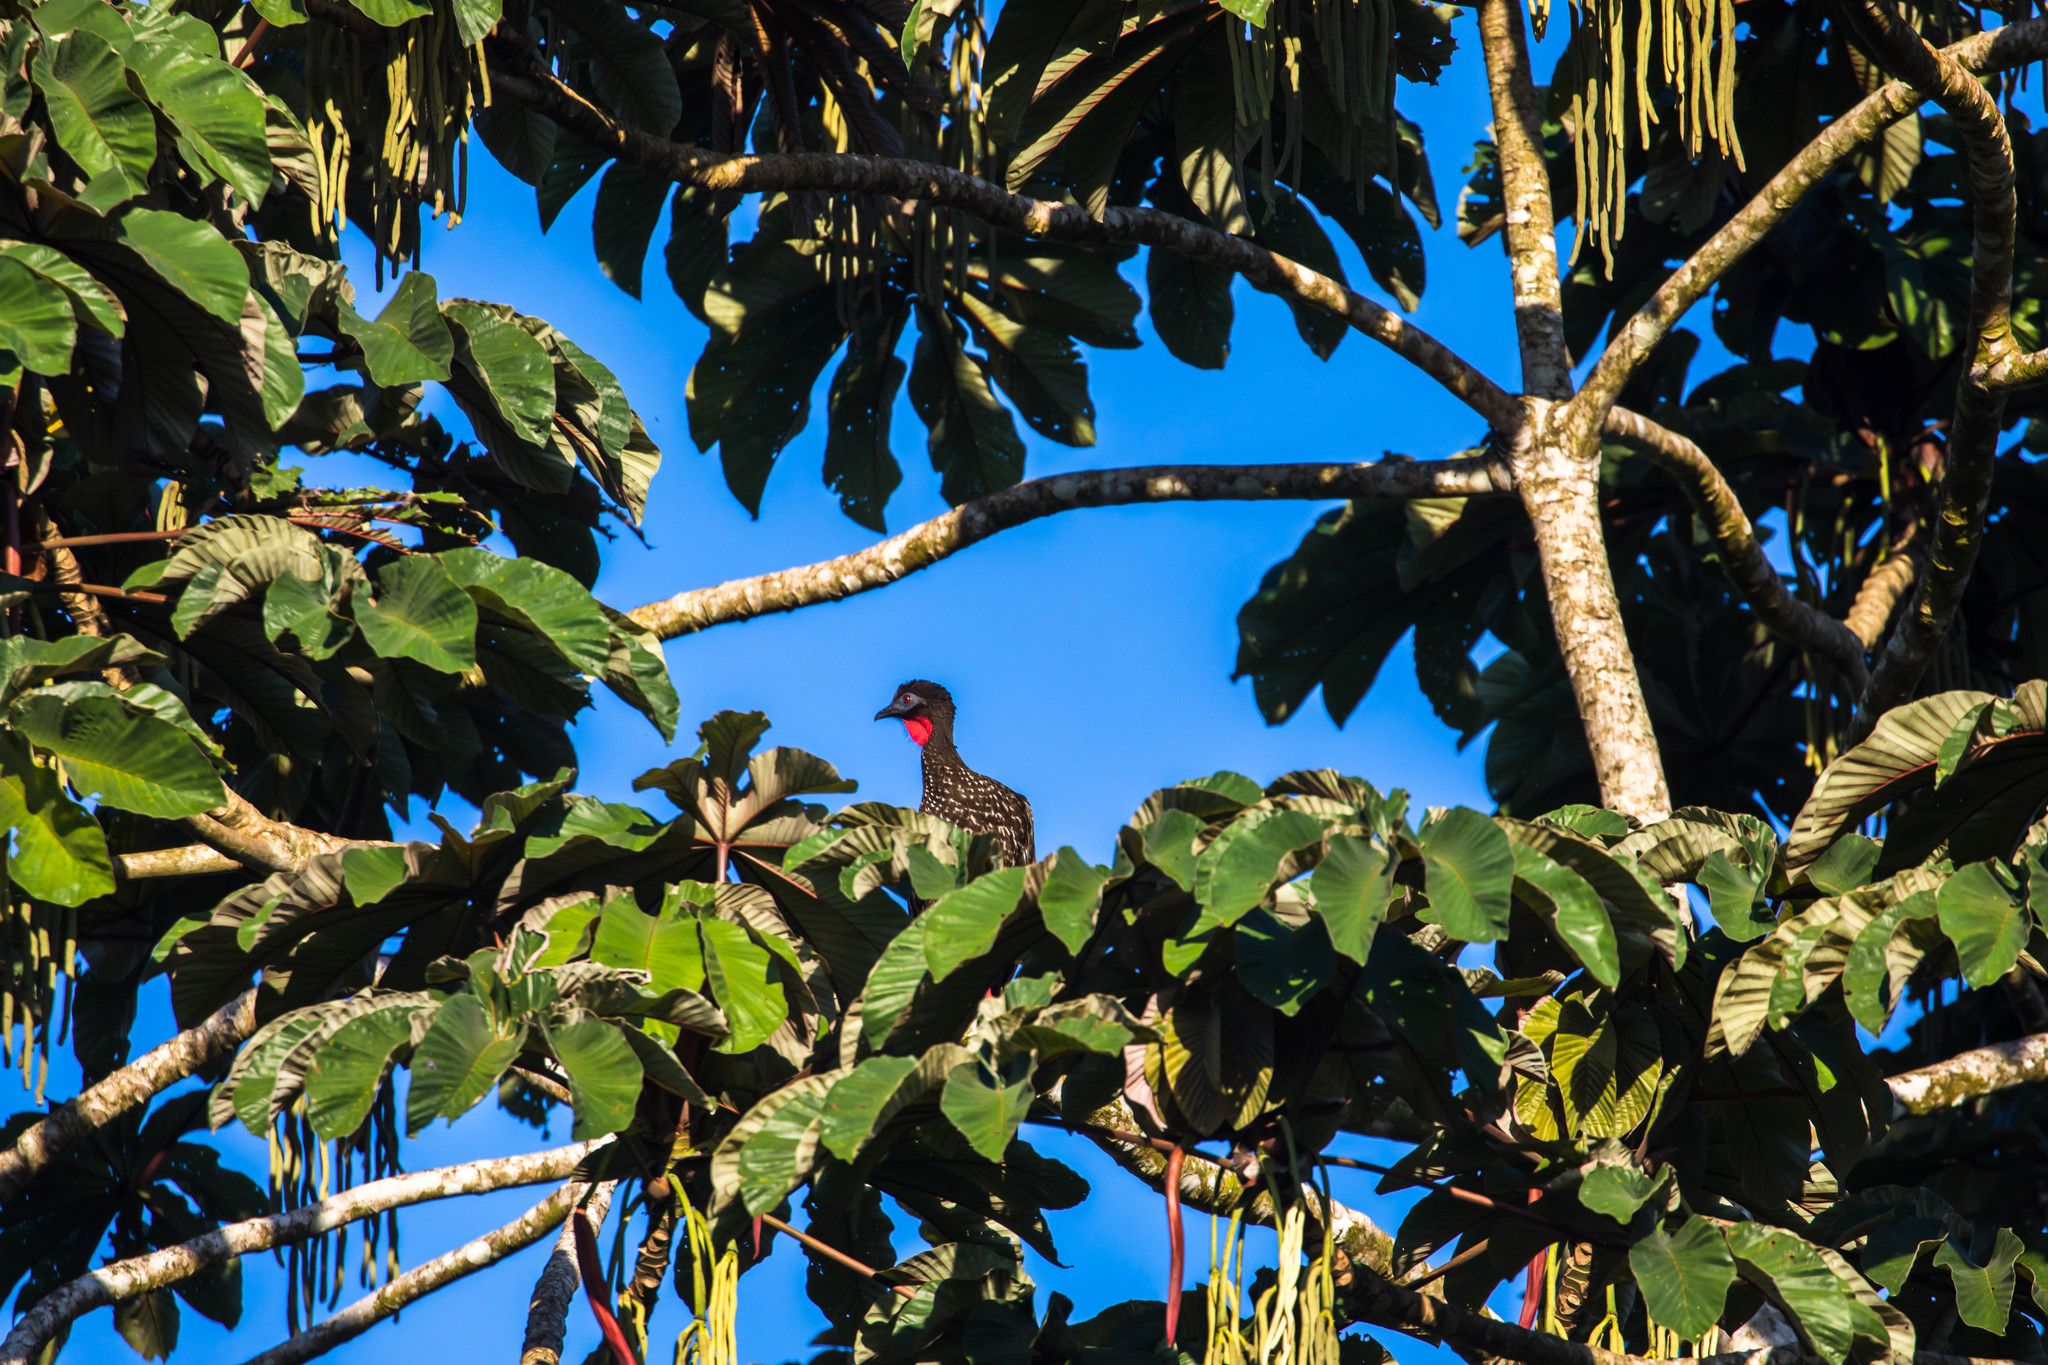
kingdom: Animalia
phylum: Chordata
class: Aves
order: Galliformes
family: Cracidae
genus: Penelope
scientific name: Penelope purpurascens
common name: Crested guan
